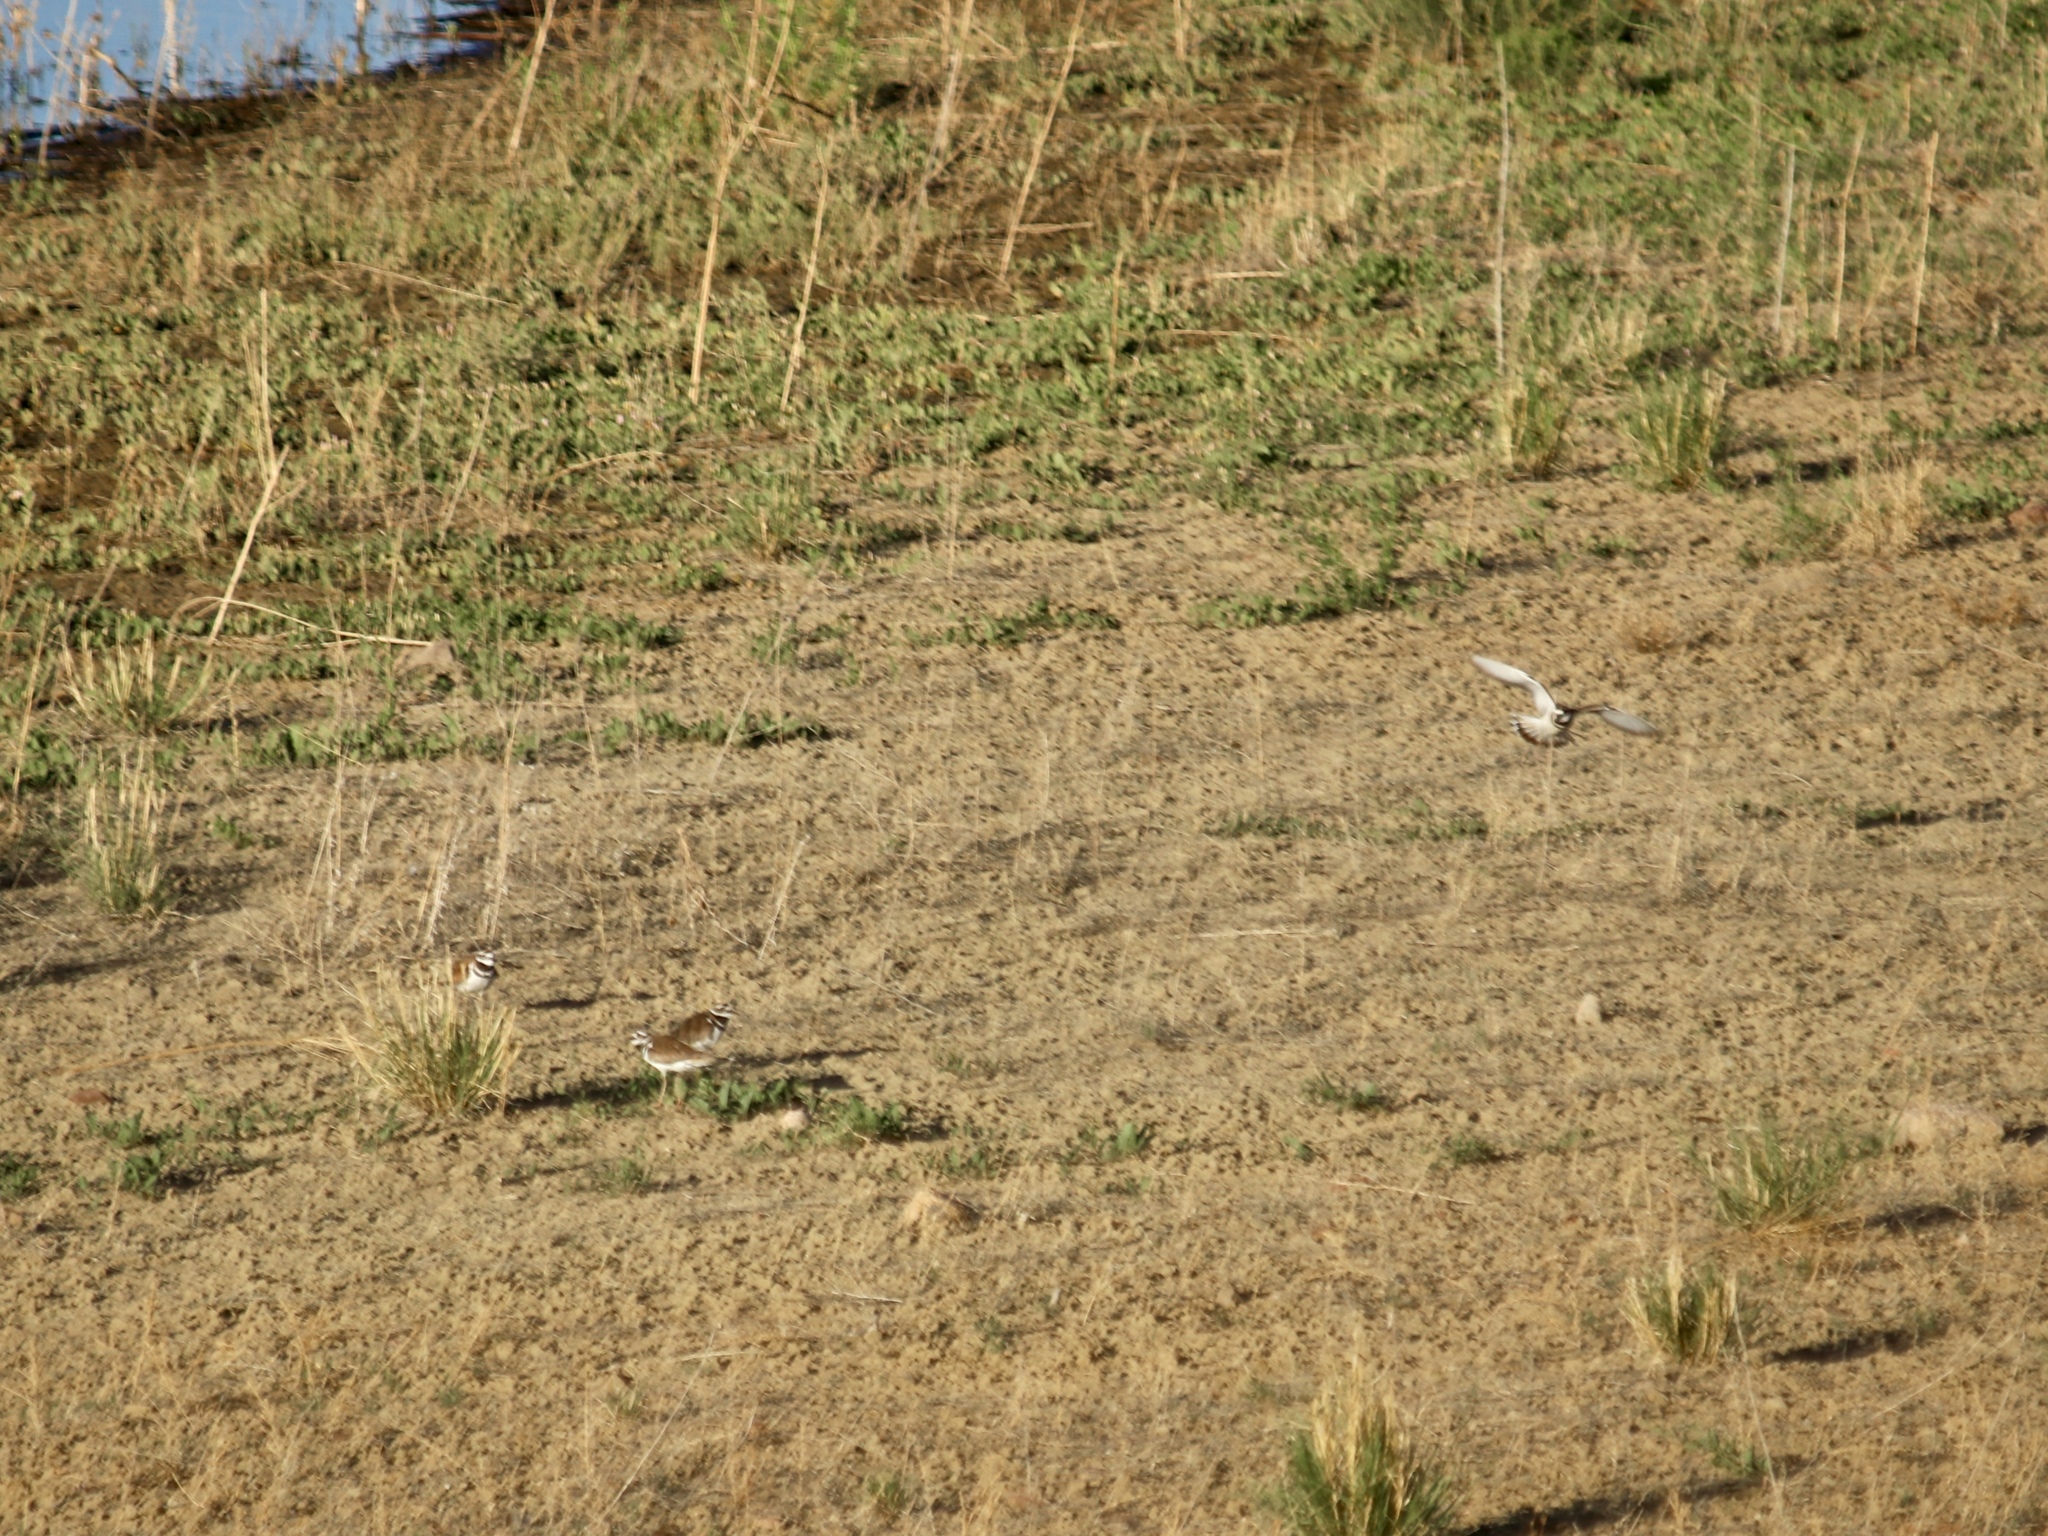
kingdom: Animalia
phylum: Chordata
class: Aves
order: Charadriiformes
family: Charadriidae
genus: Charadrius
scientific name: Charadrius vociferus
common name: Killdeer
